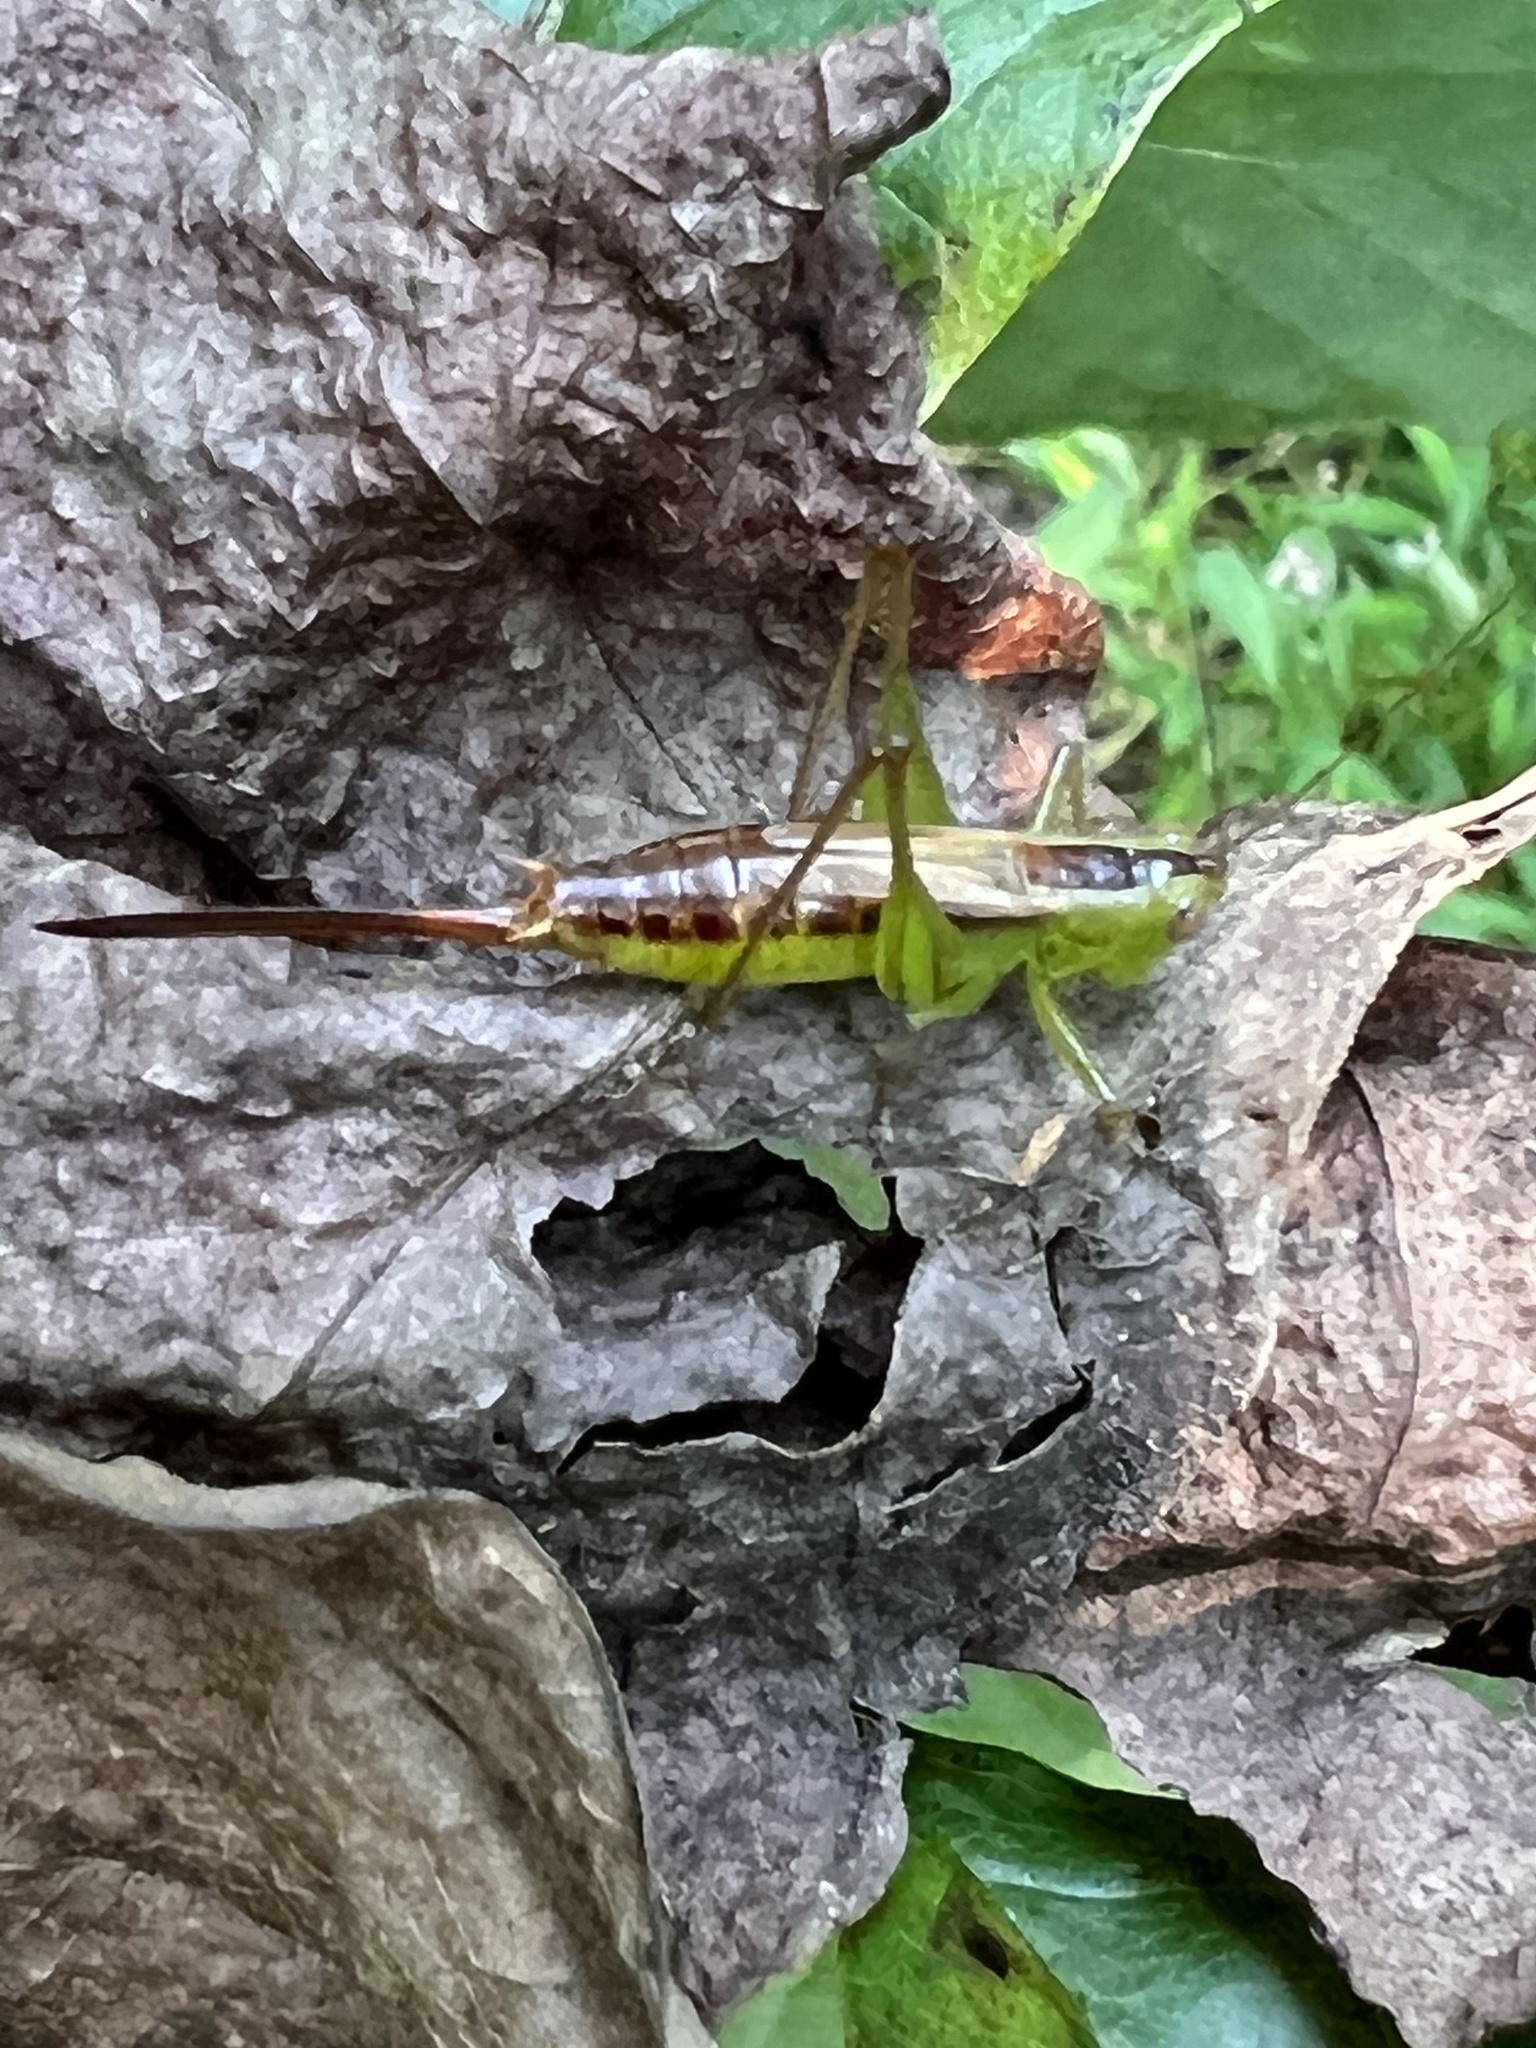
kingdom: Animalia
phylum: Arthropoda
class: Insecta
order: Orthoptera
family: Tettigoniidae
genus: Conocephalus
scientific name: Conocephalus brevipennis
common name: Short-winged meadow katydid
